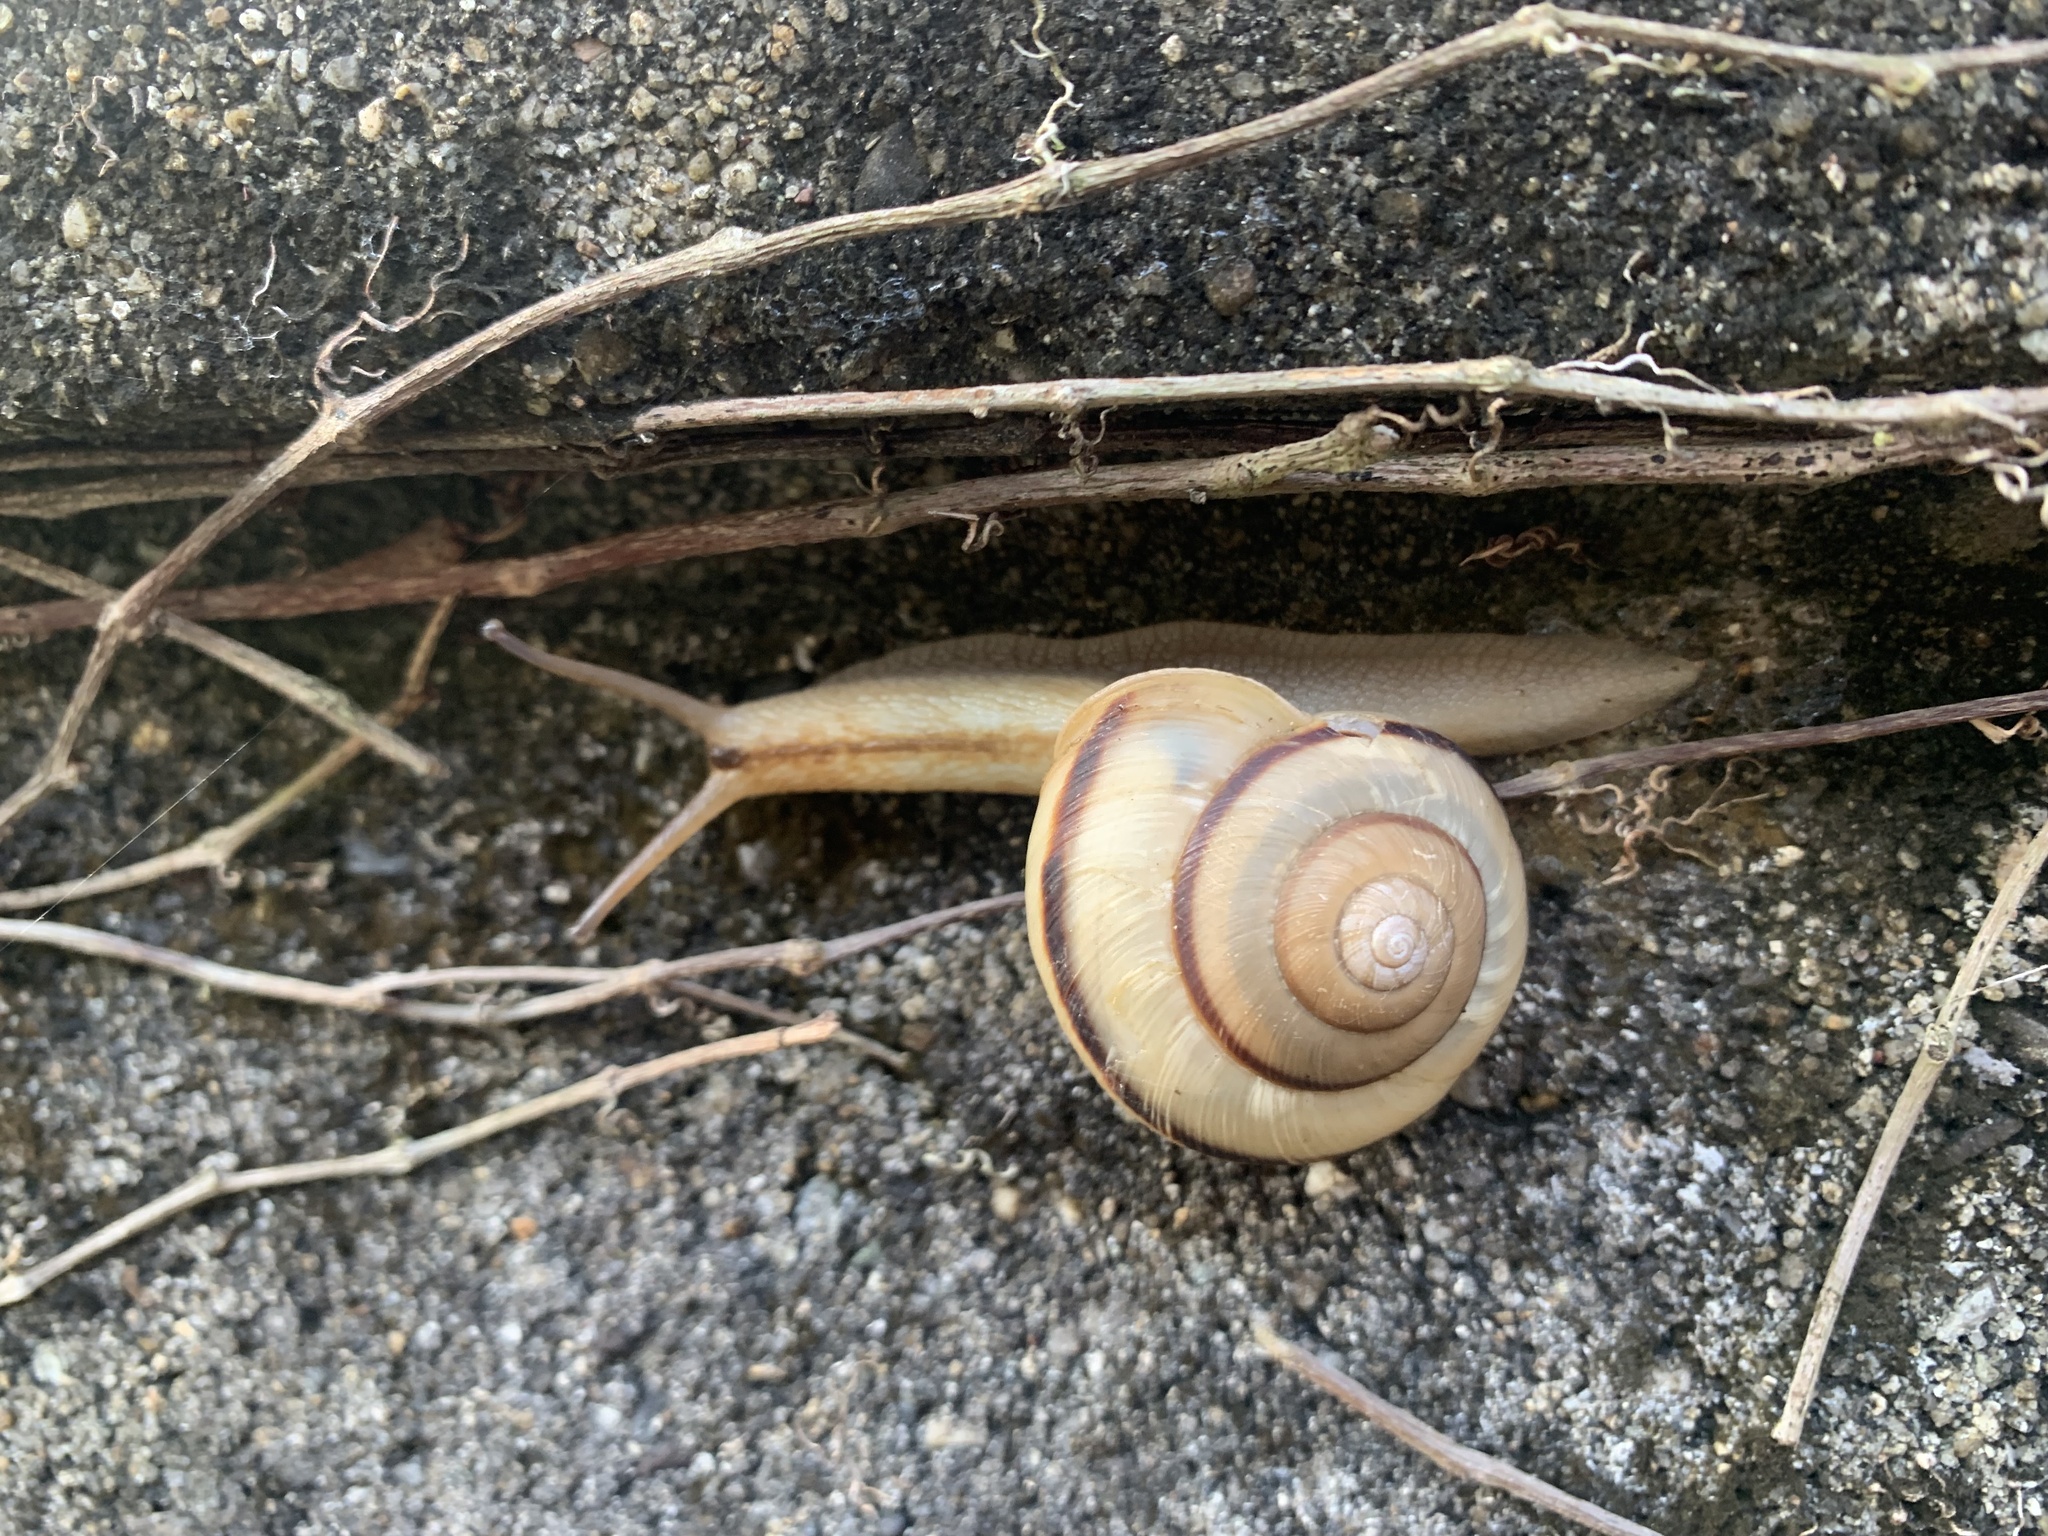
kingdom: Animalia
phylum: Mollusca
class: Gastropoda
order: Stylommatophora
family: Camaenidae
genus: Euhadra
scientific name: Euhadra subnimbosa
